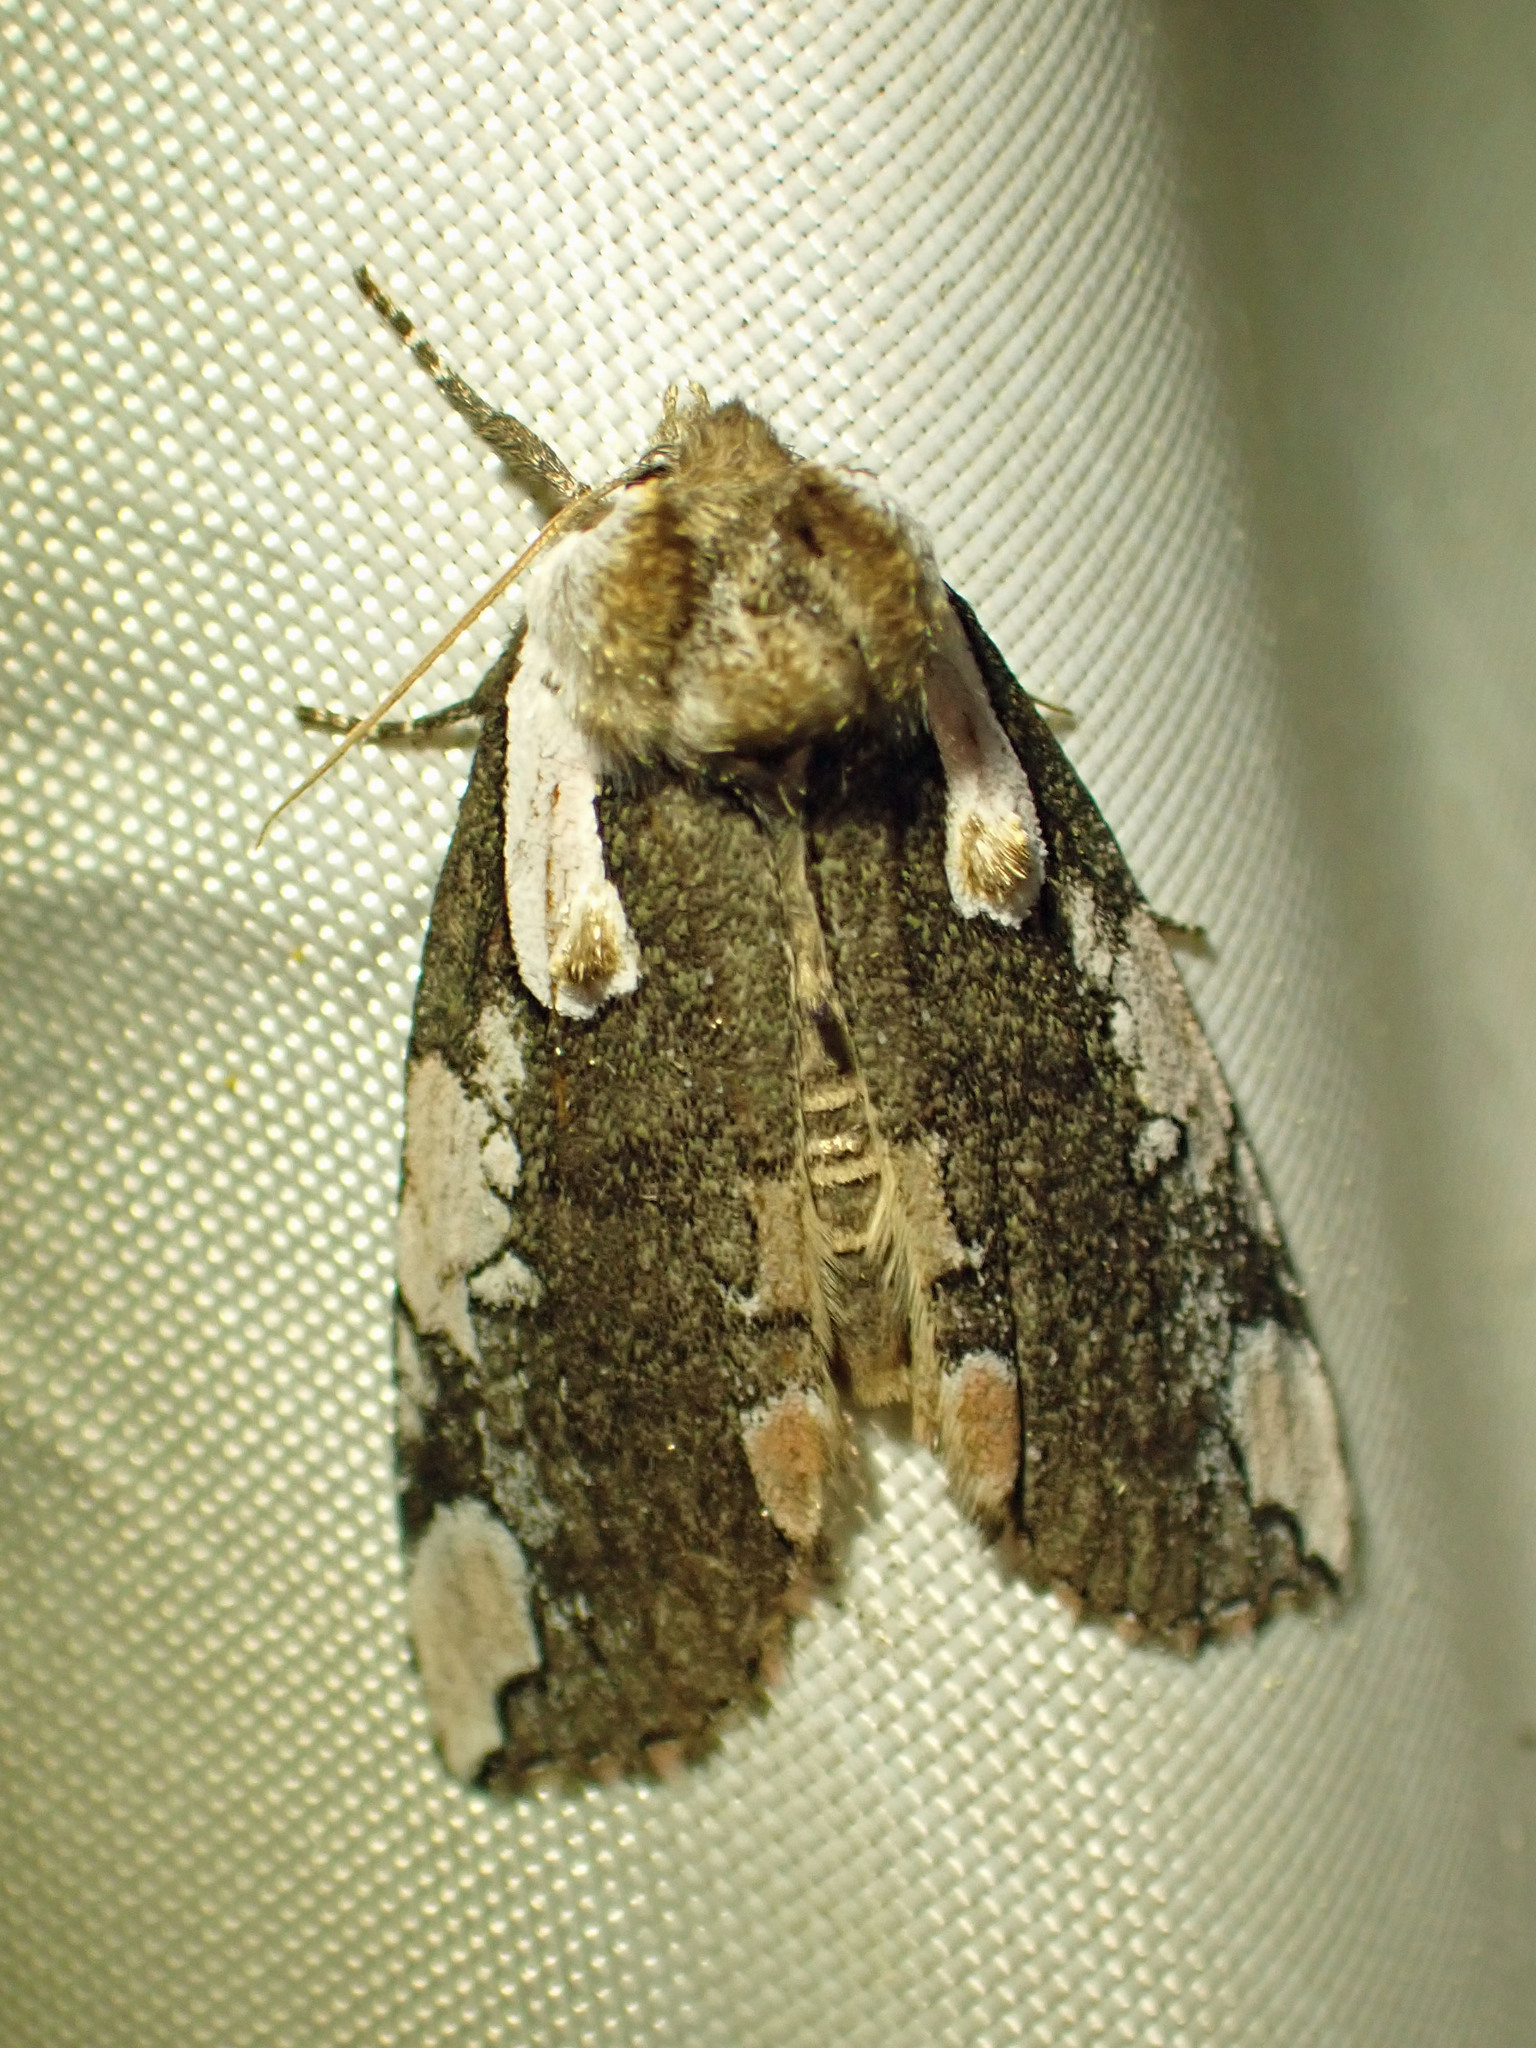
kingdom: Animalia
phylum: Arthropoda
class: Insecta
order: Lepidoptera
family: Drepanidae
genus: Euthyatira
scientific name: Euthyatira pudens
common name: Dogwood thyatirid moth
